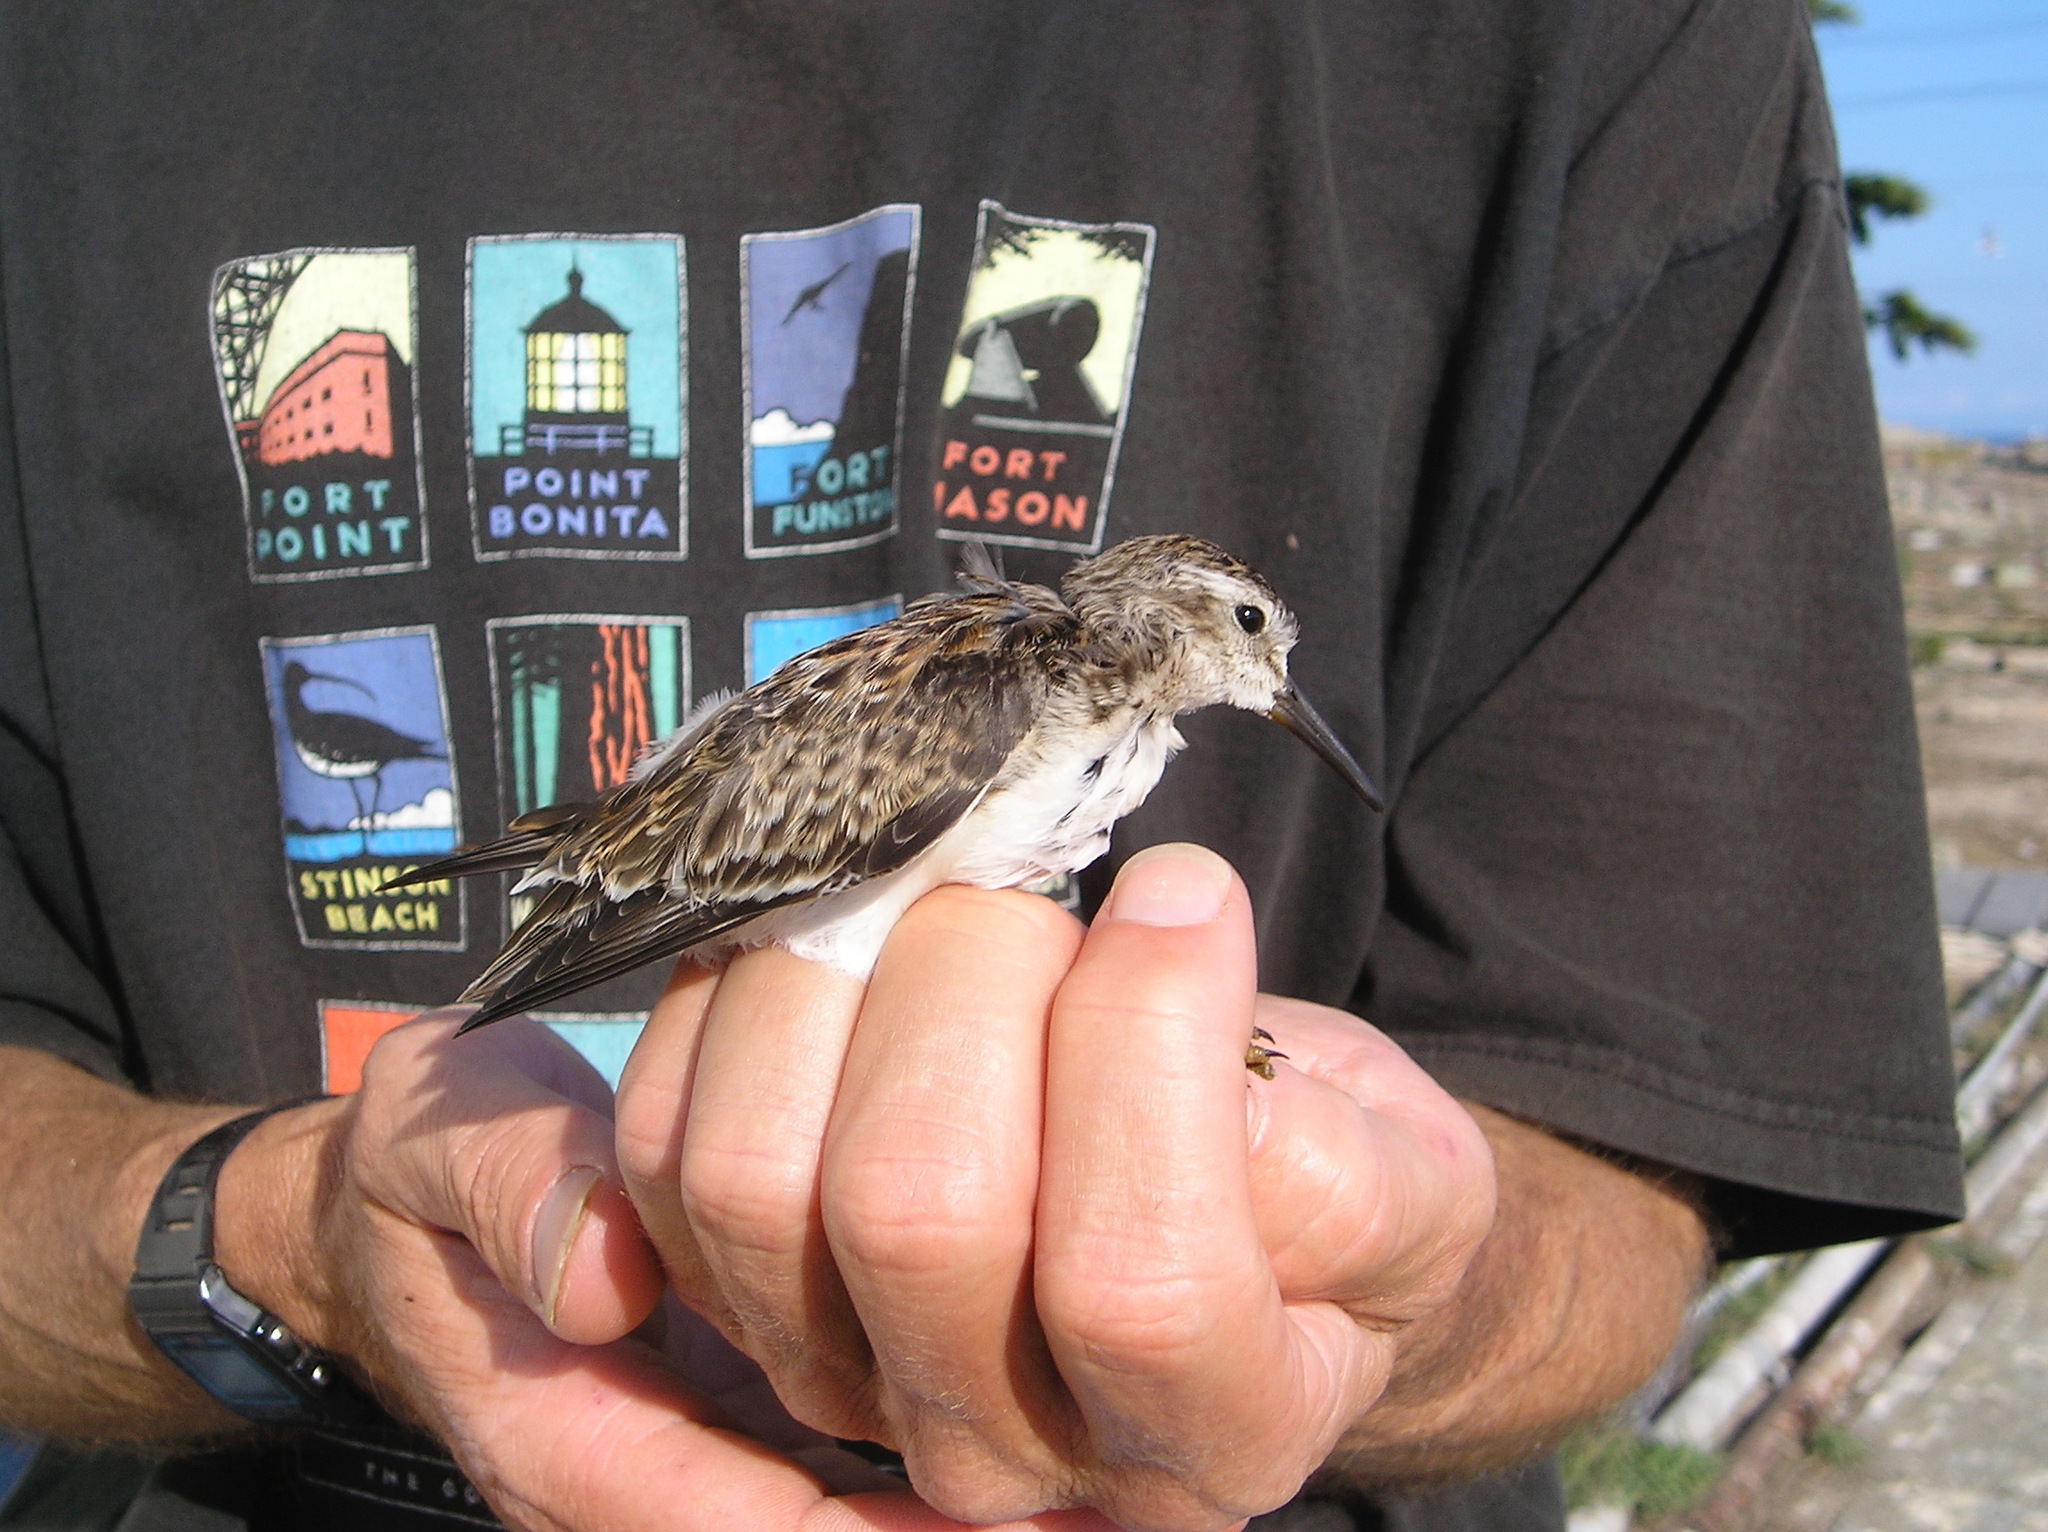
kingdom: Animalia
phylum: Chordata
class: Aves
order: Charadriiformes
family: Scolopacidae
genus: Calidris
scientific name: Calidris minutilla
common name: Least sandpiper
